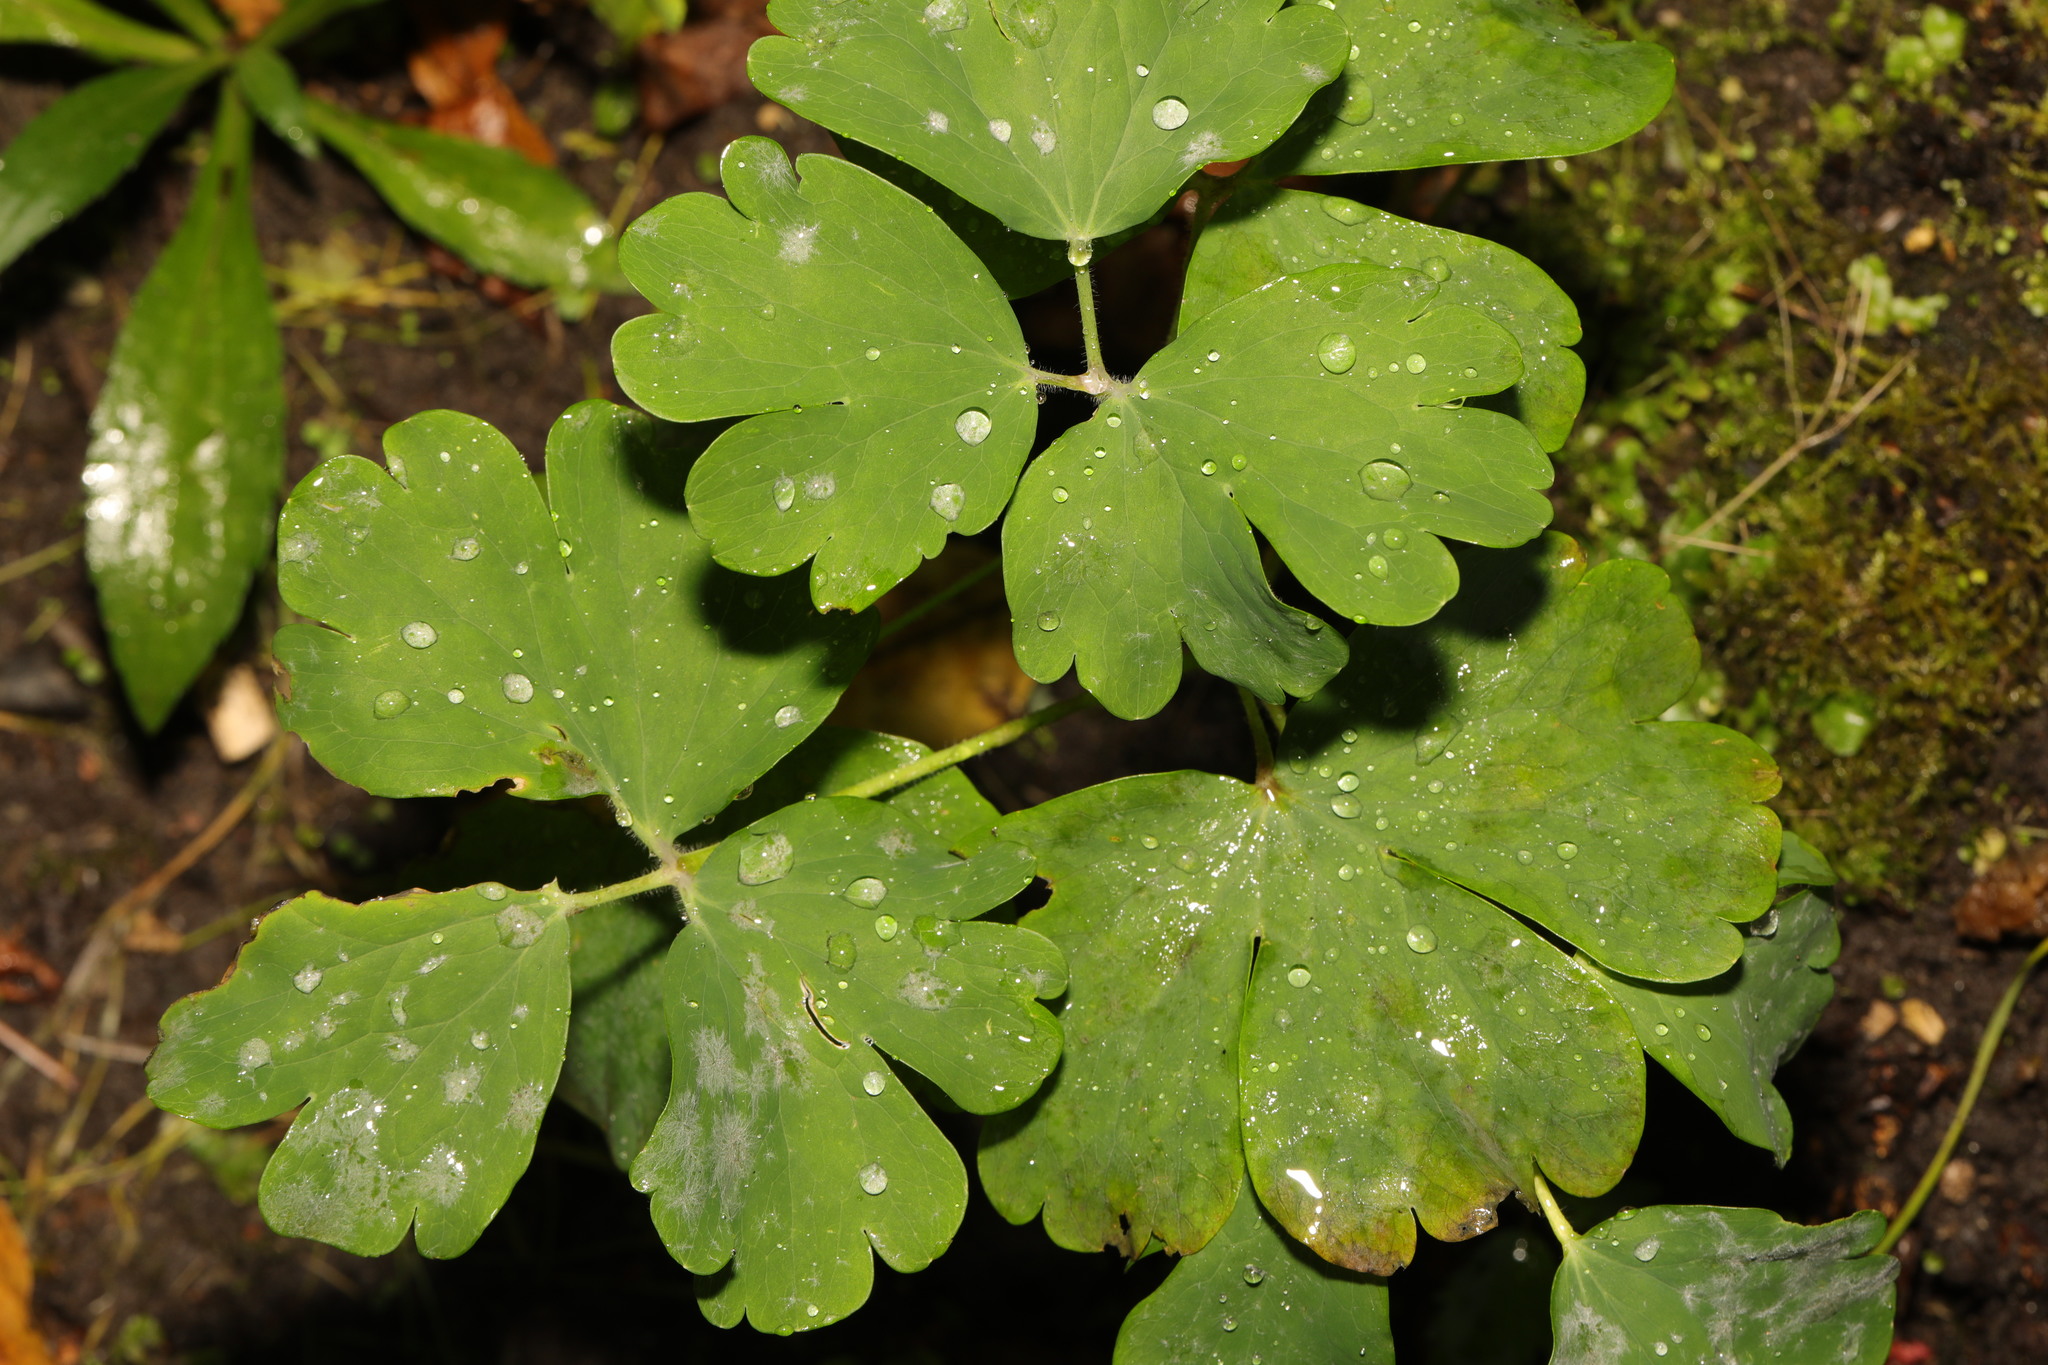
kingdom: Plantae
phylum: Tracheophyta
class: Magnoliopsida
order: Ranunculales
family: Ranunculaceae
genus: Aquilegia
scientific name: Aquilegia vulgaris
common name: Columbine
